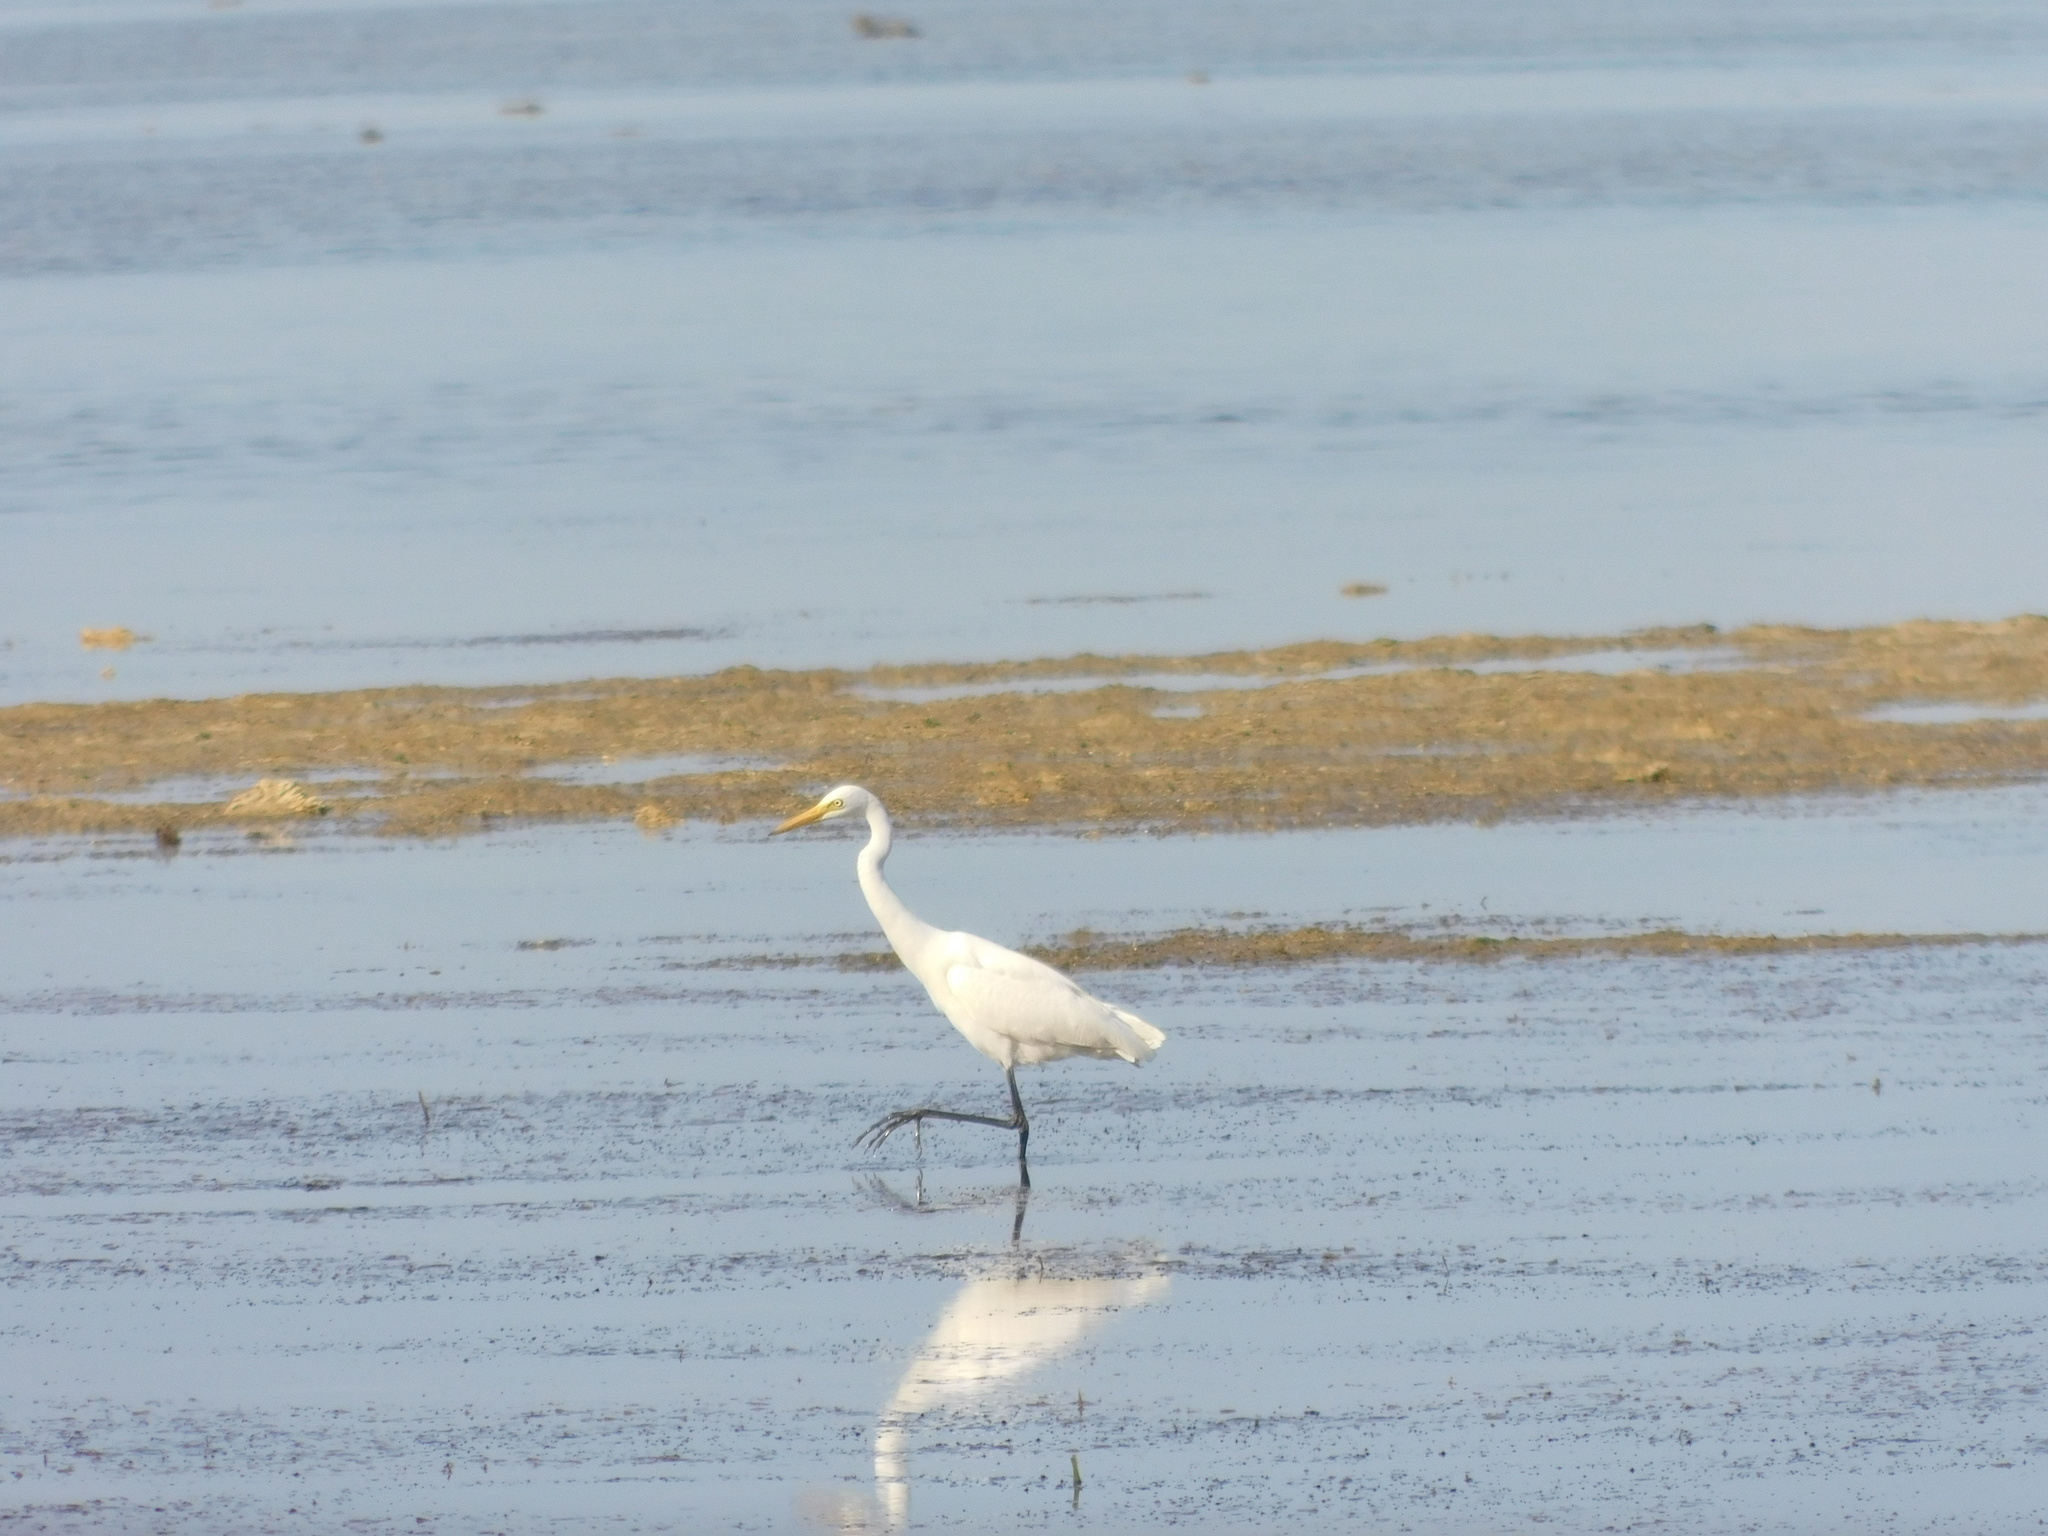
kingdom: Animalia
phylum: Chordata
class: Aves
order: Pelecaniformes
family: Ardeidae
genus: Egretta
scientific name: Egretta intermedia
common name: Intermediate egret
